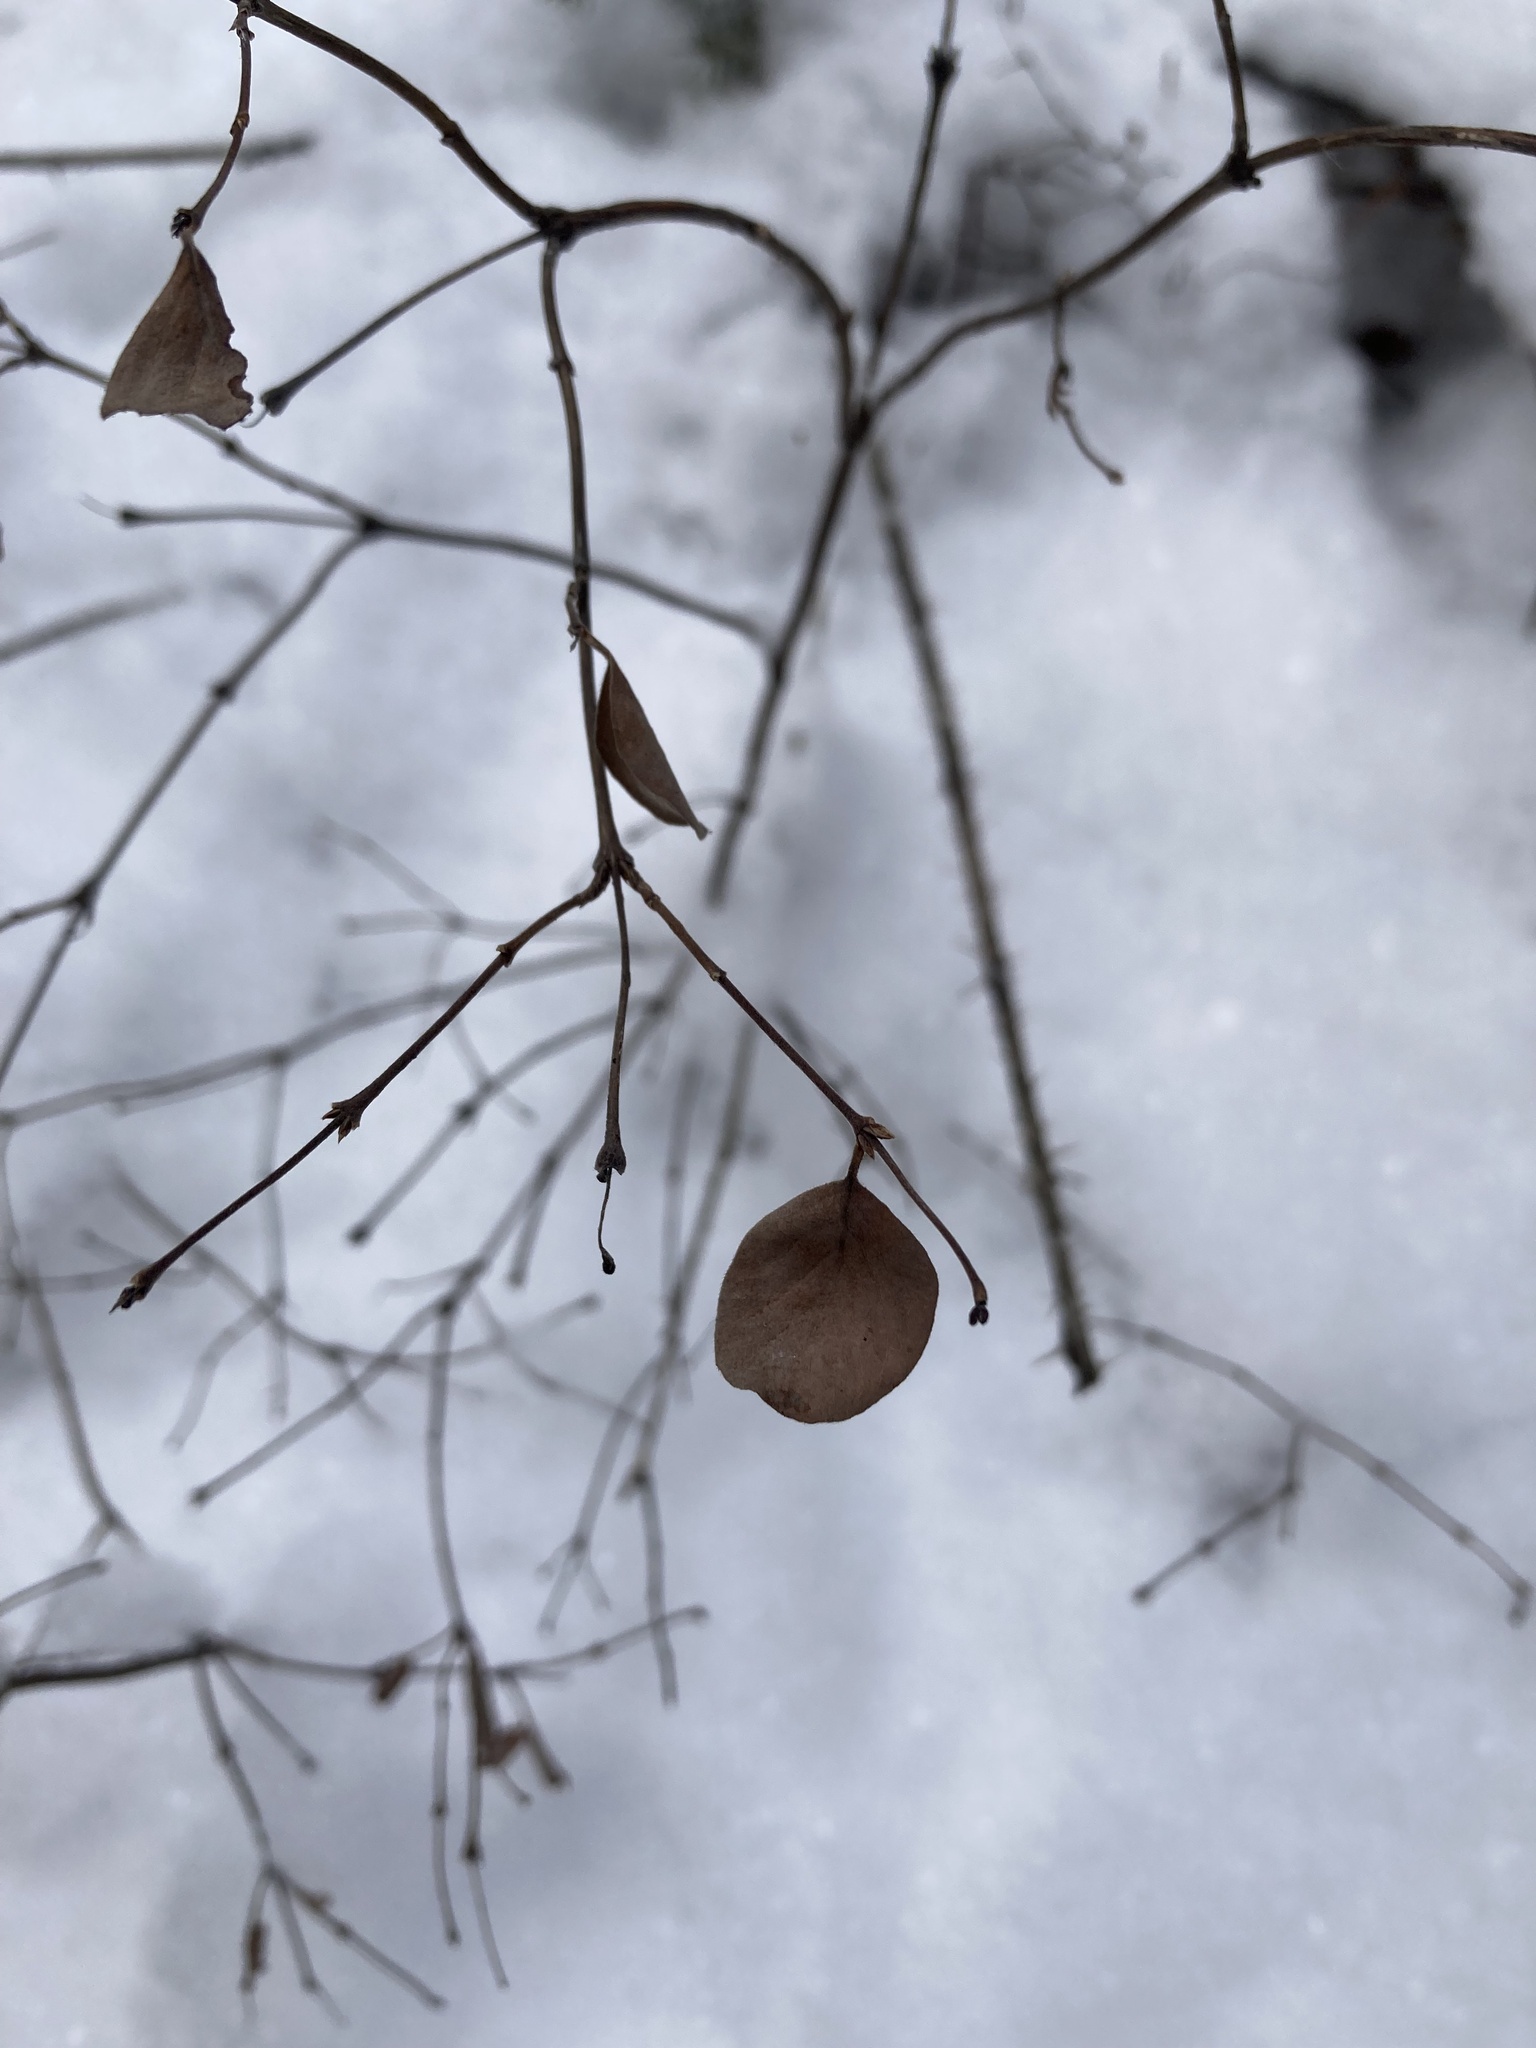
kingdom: Plantae
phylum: Tracheophyta
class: Magnoliopsida
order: Dipsacales
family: Caprifoliaceae
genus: Symphoricarpos
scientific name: Symphoricarpos occidentalis
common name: Wolfberry
